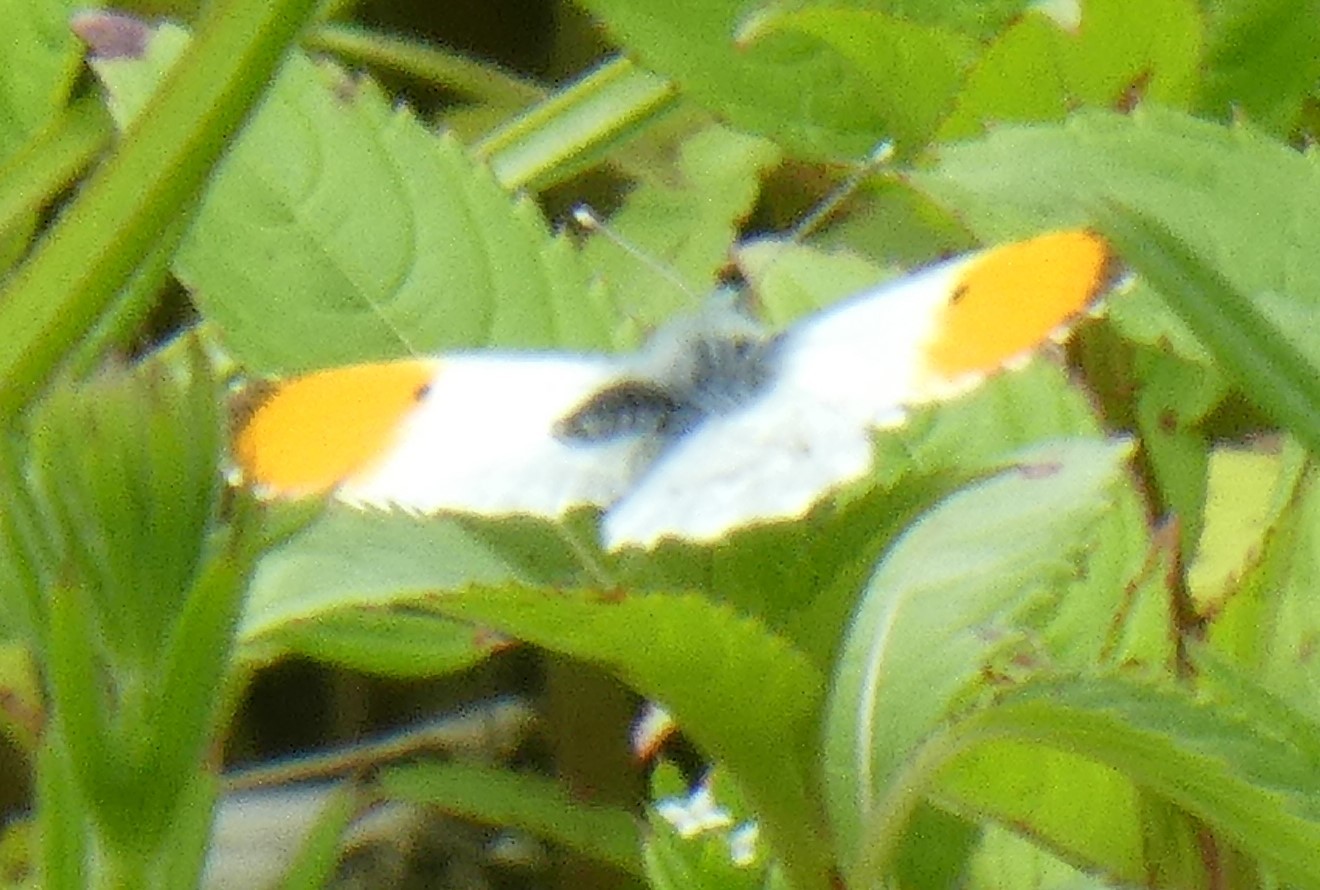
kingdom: Animalia
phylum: Arthropoda
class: Insecta
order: Lepidoptera
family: Pieridae
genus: Anthocharis
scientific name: Anthocharis cardamines
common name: Orange-tip
